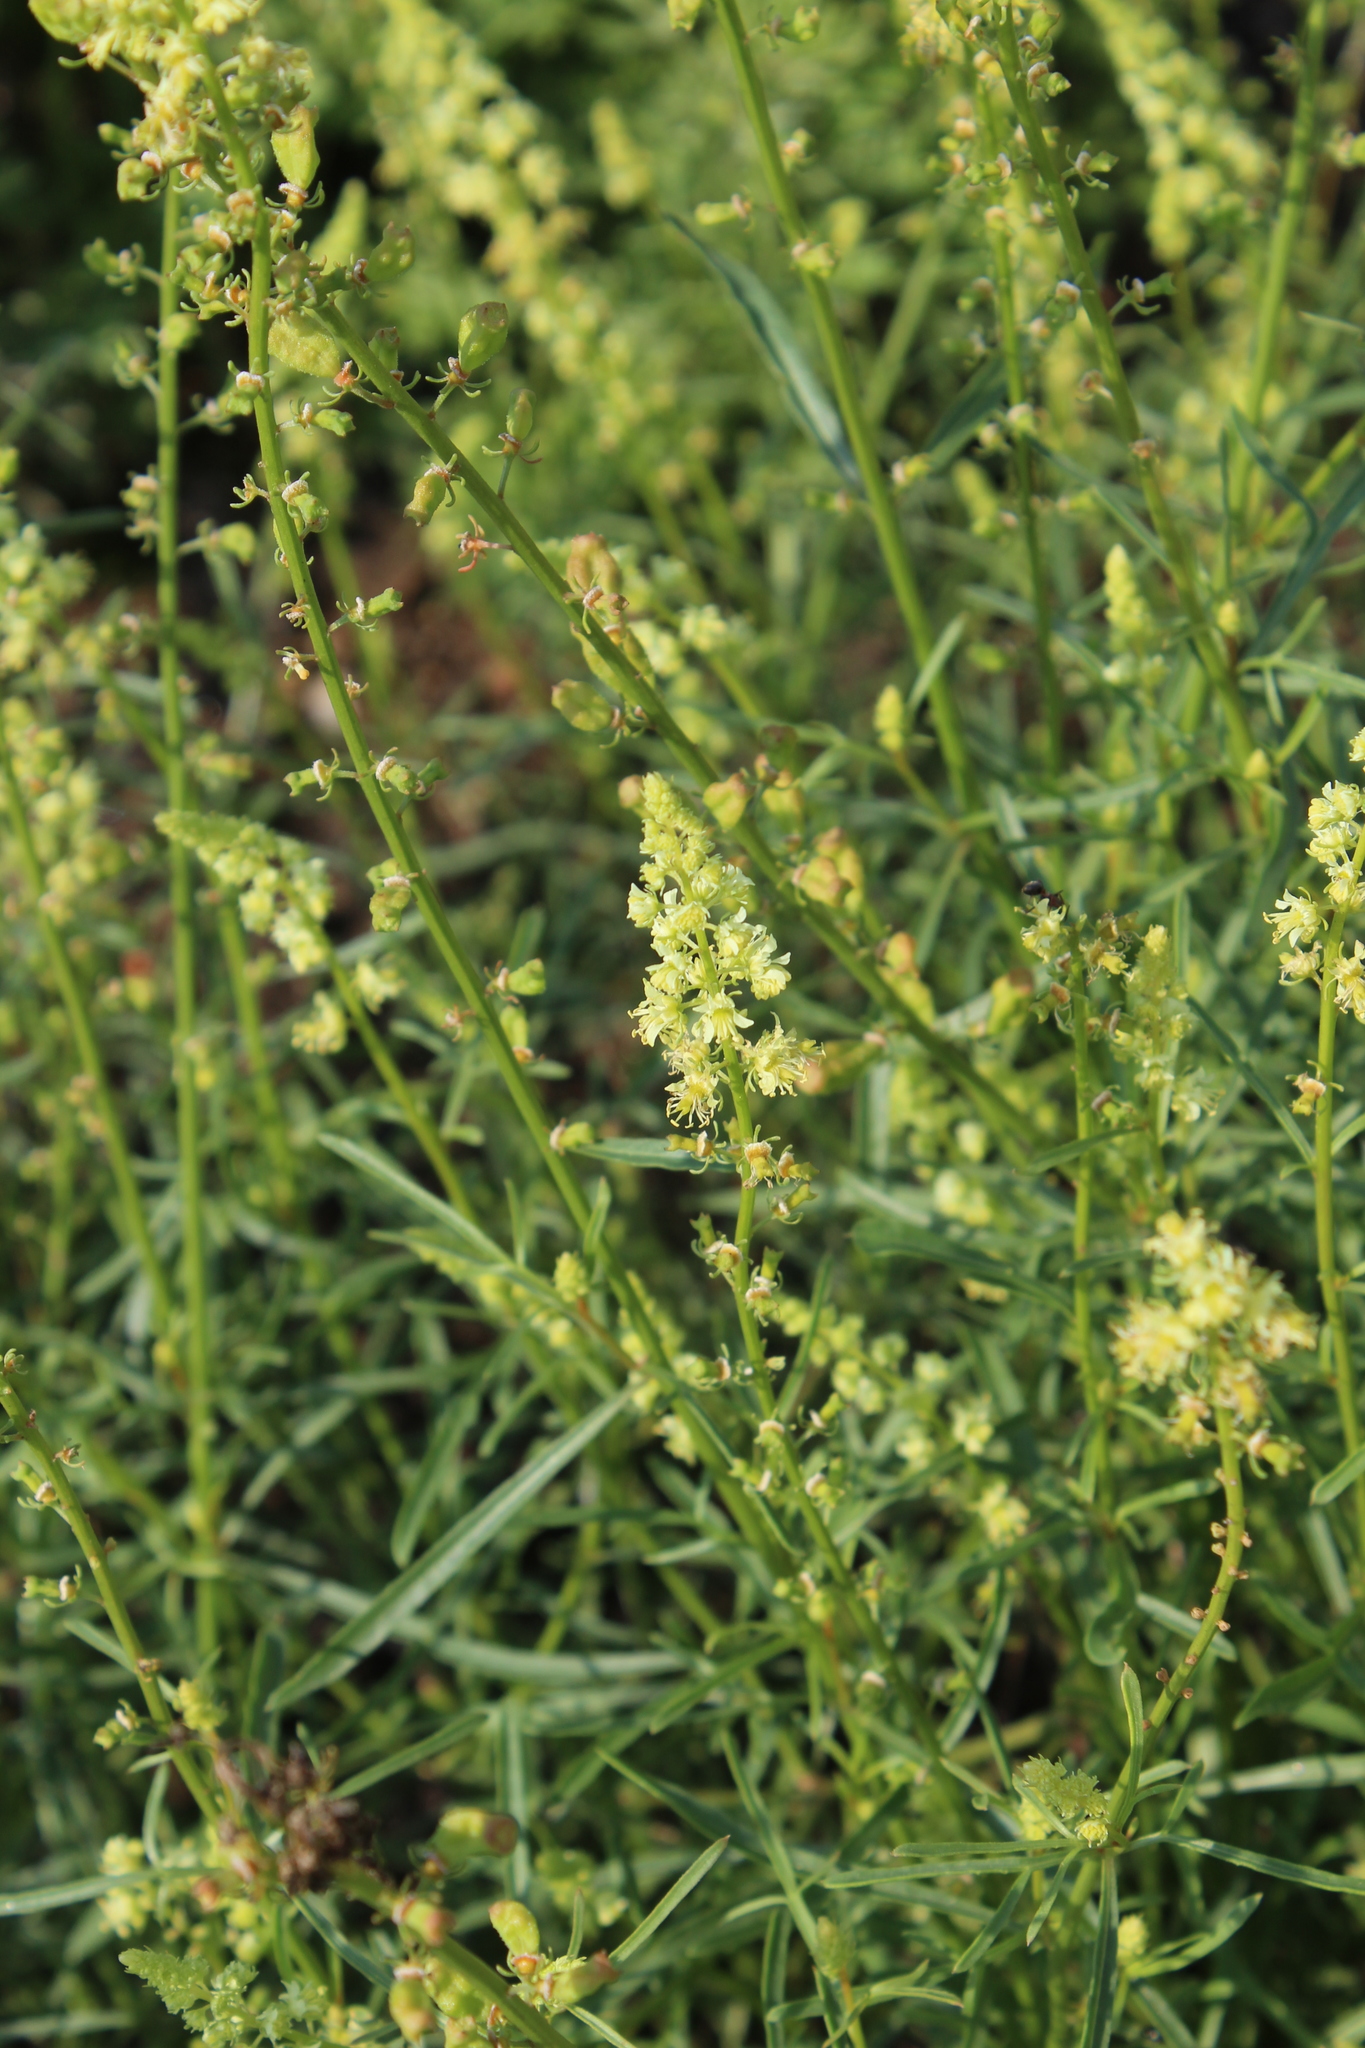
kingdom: Plantae
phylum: Tracheophyta
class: Magnoliopsida
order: Brassicales
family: Resedaceae
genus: Reseda
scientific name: Reseda lutea
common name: Wild mignonette
